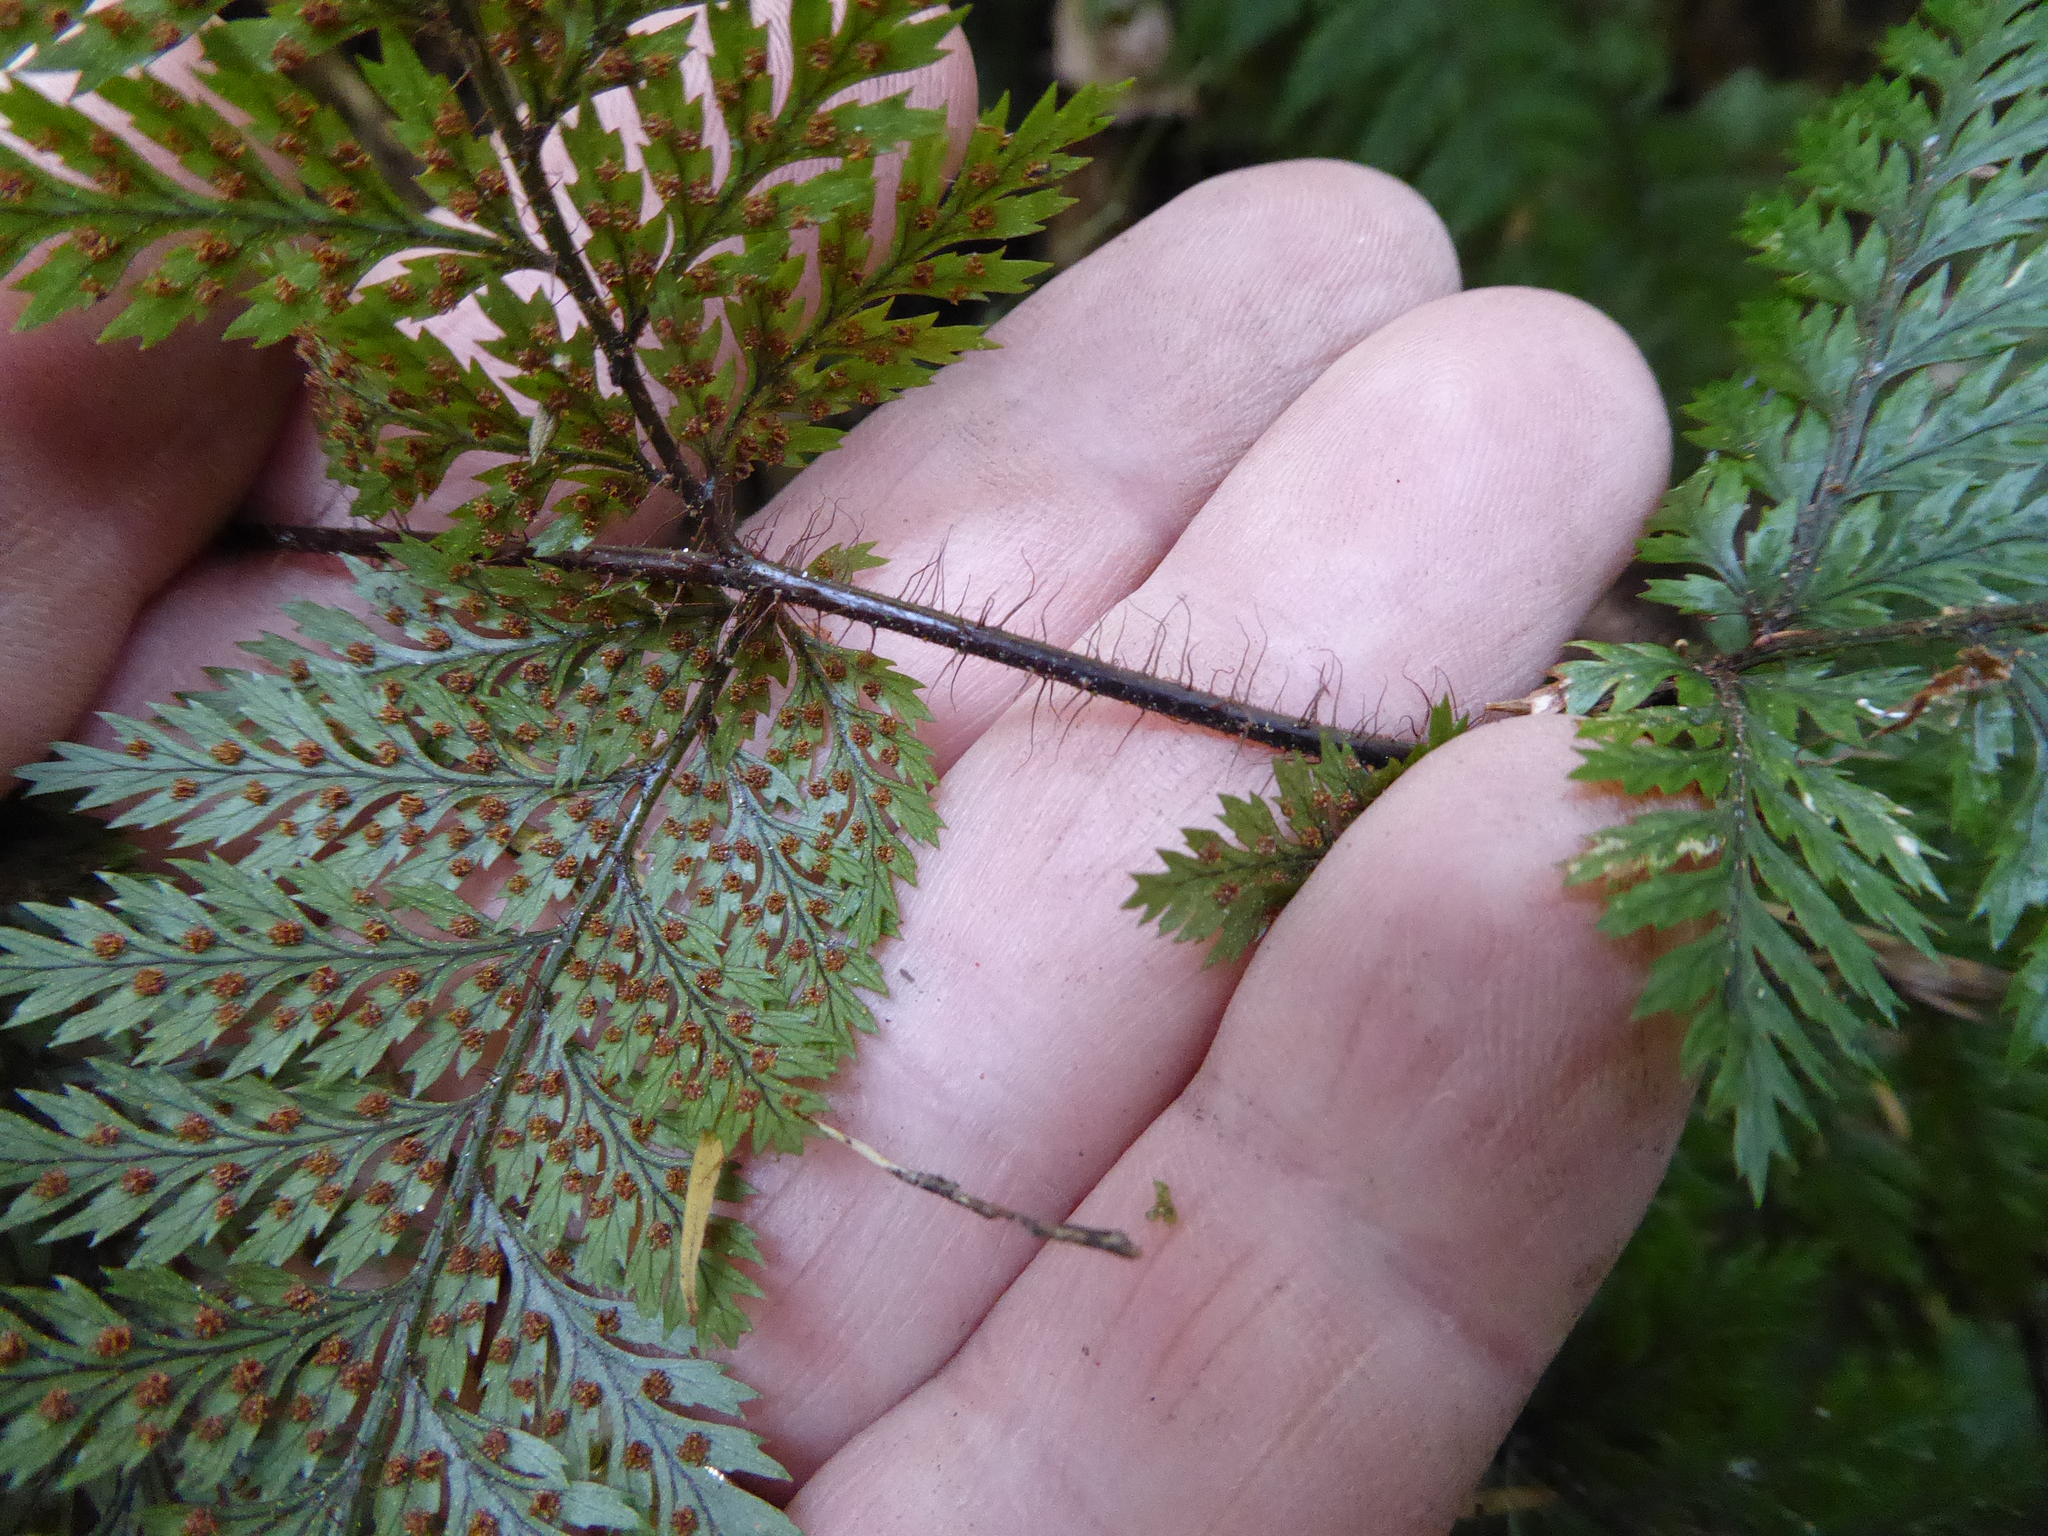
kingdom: Plantae
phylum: Tracheophyta
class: Polypodiopsida
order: Polypodiales
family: Dryopteridaceae
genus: Lastreopsis
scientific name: Lastreopsis hispida
